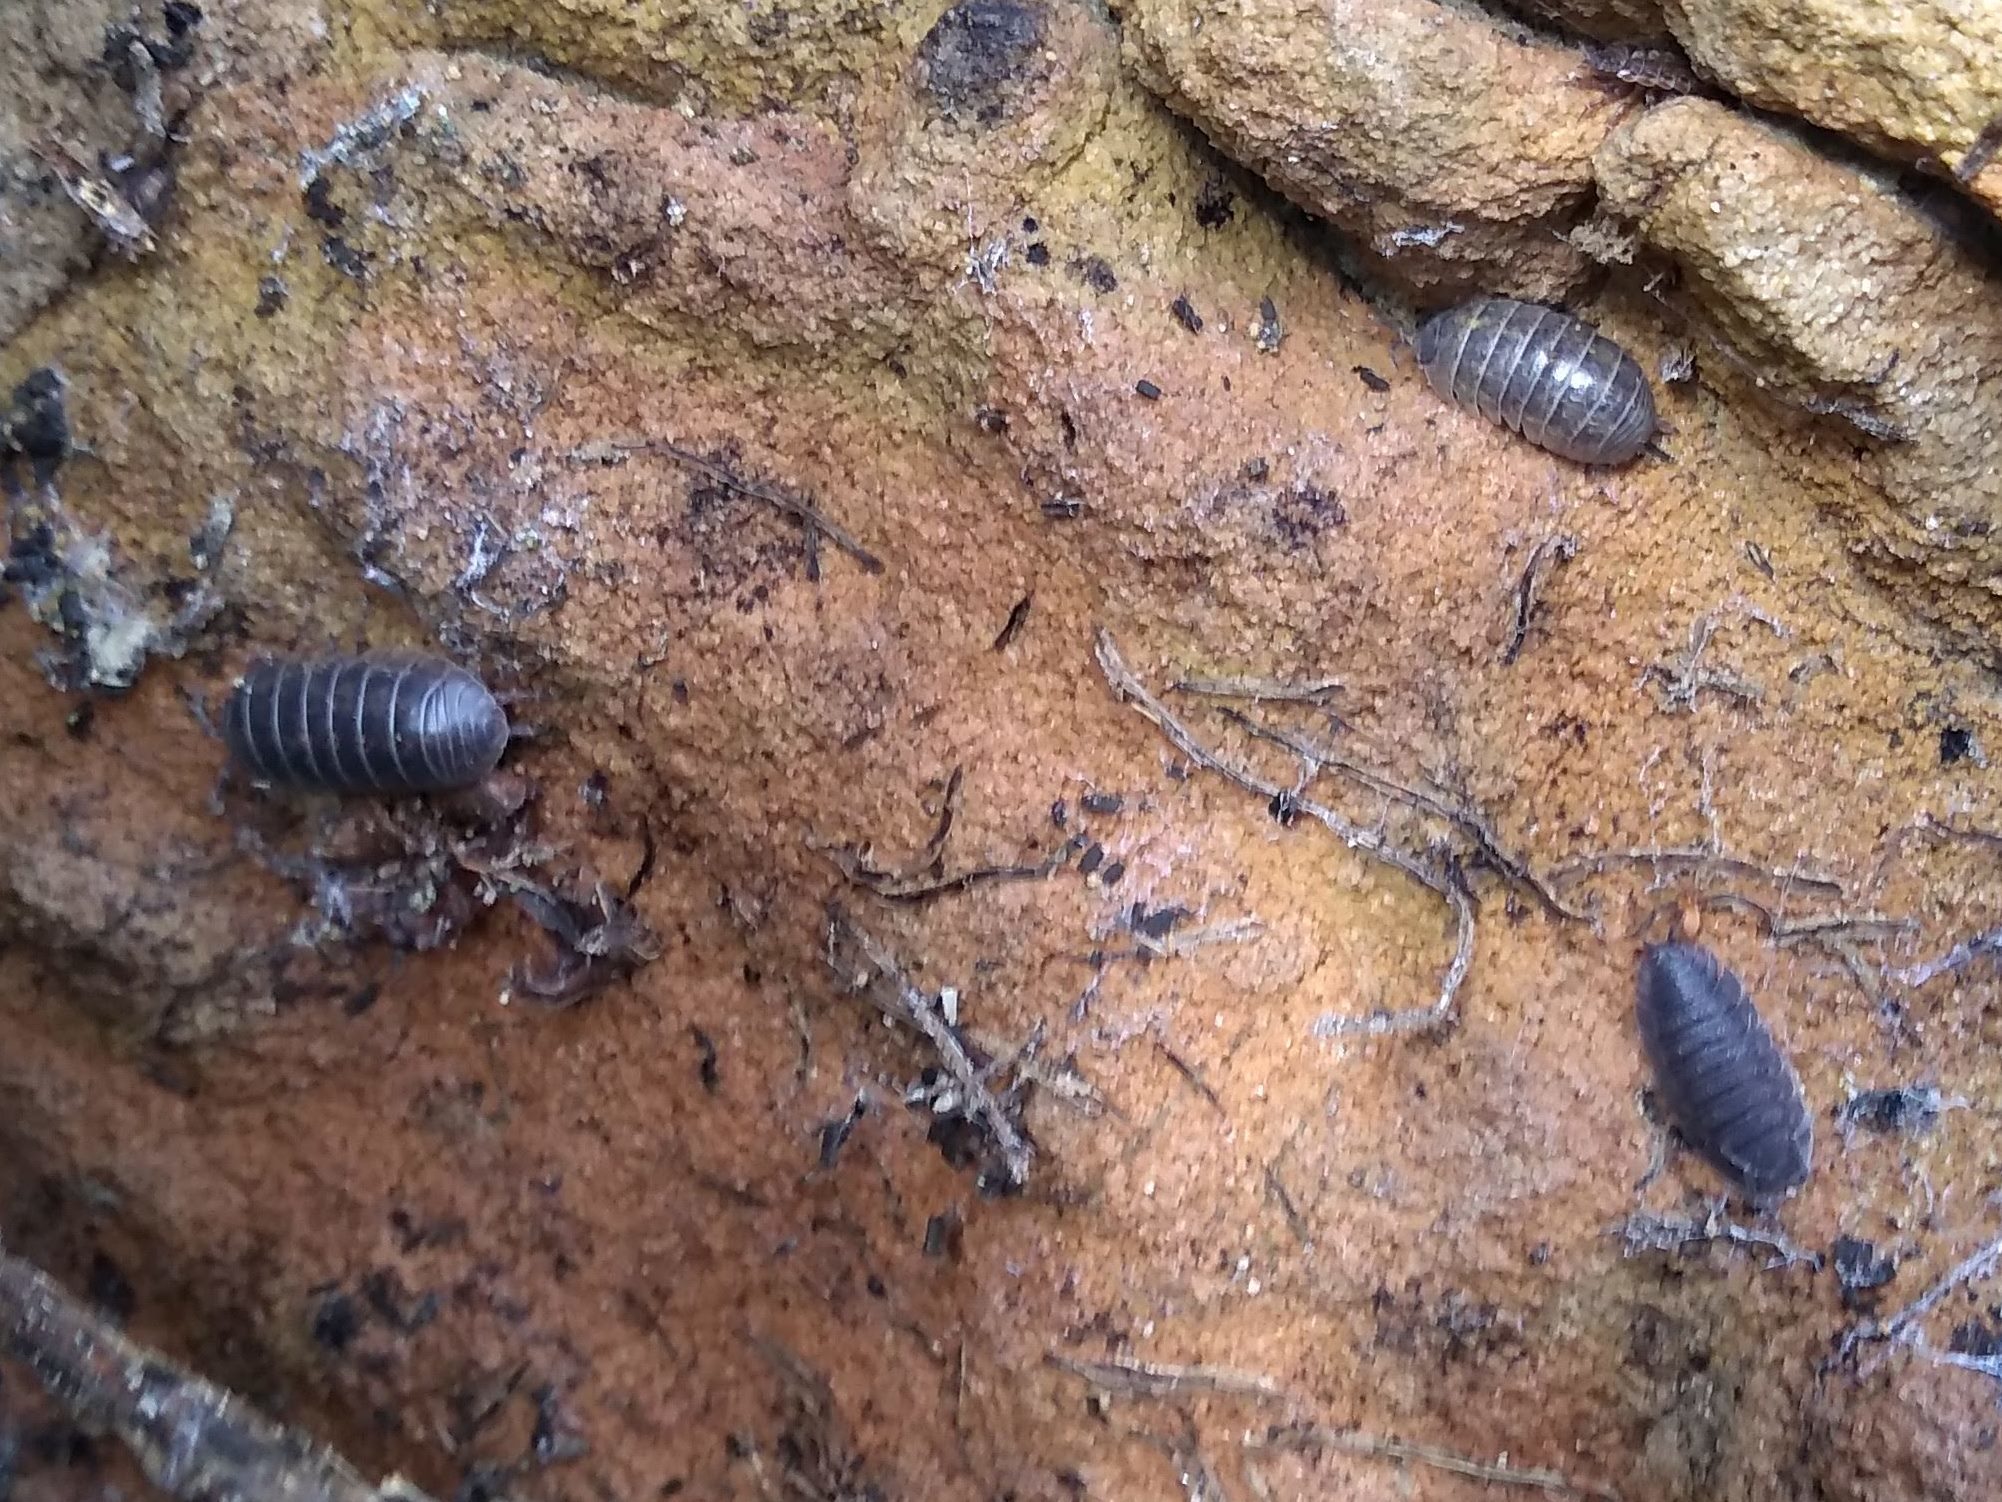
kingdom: Animalia
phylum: Arthropoda
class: Malacostraca
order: Isopoda
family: Armadillidiidae
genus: Armadillidium
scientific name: Armadillidium vulgare
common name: Common pill woodlouse
